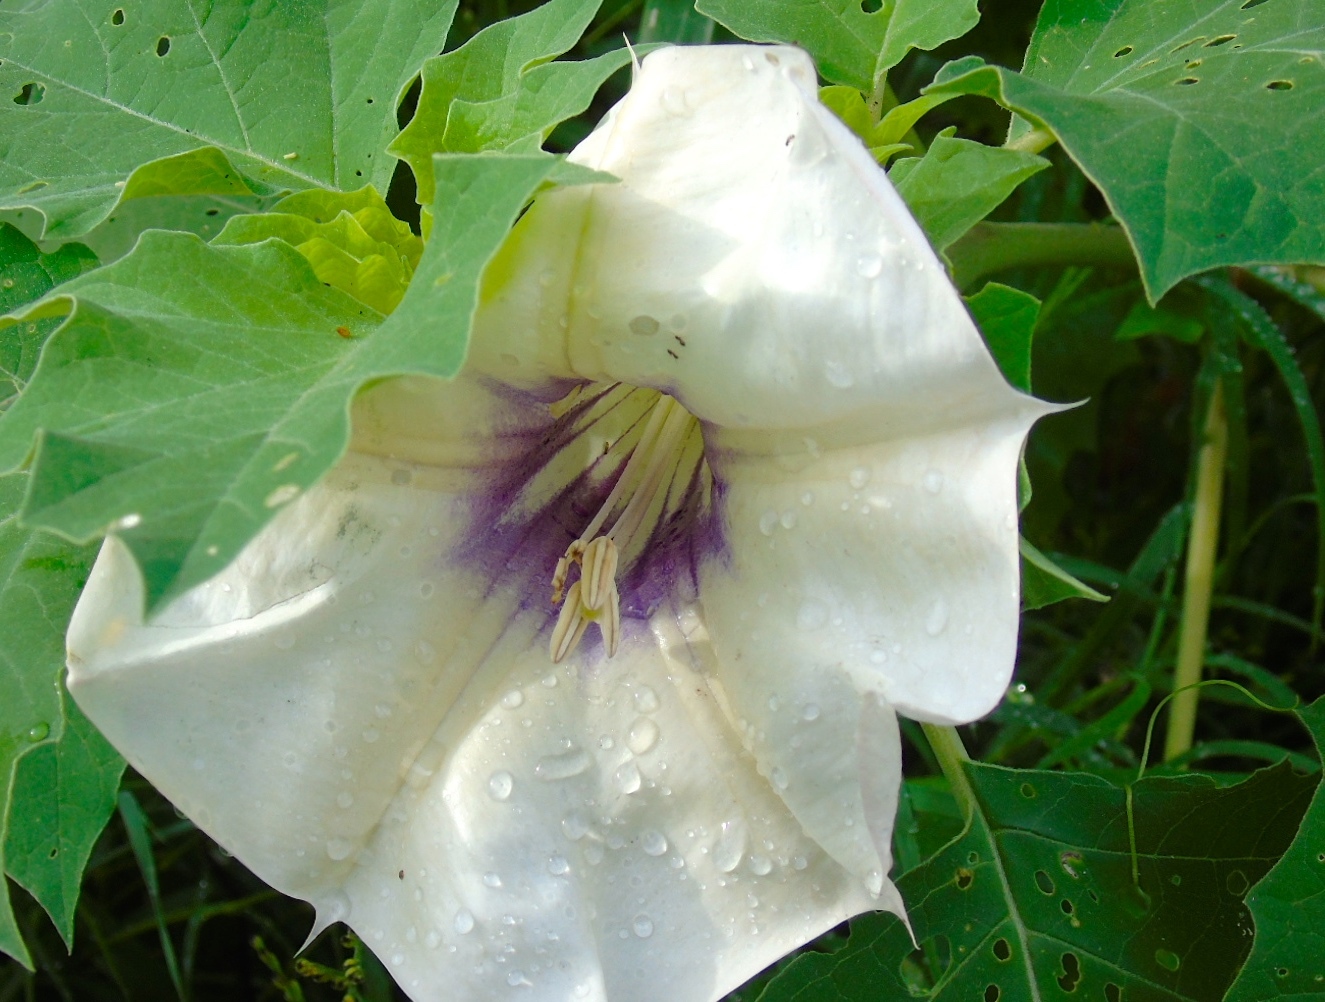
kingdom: Plantae
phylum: Tracheophyta
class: Magnoliopsida
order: Solanales
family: Solanaceae
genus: Datura
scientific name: Datura discolor
